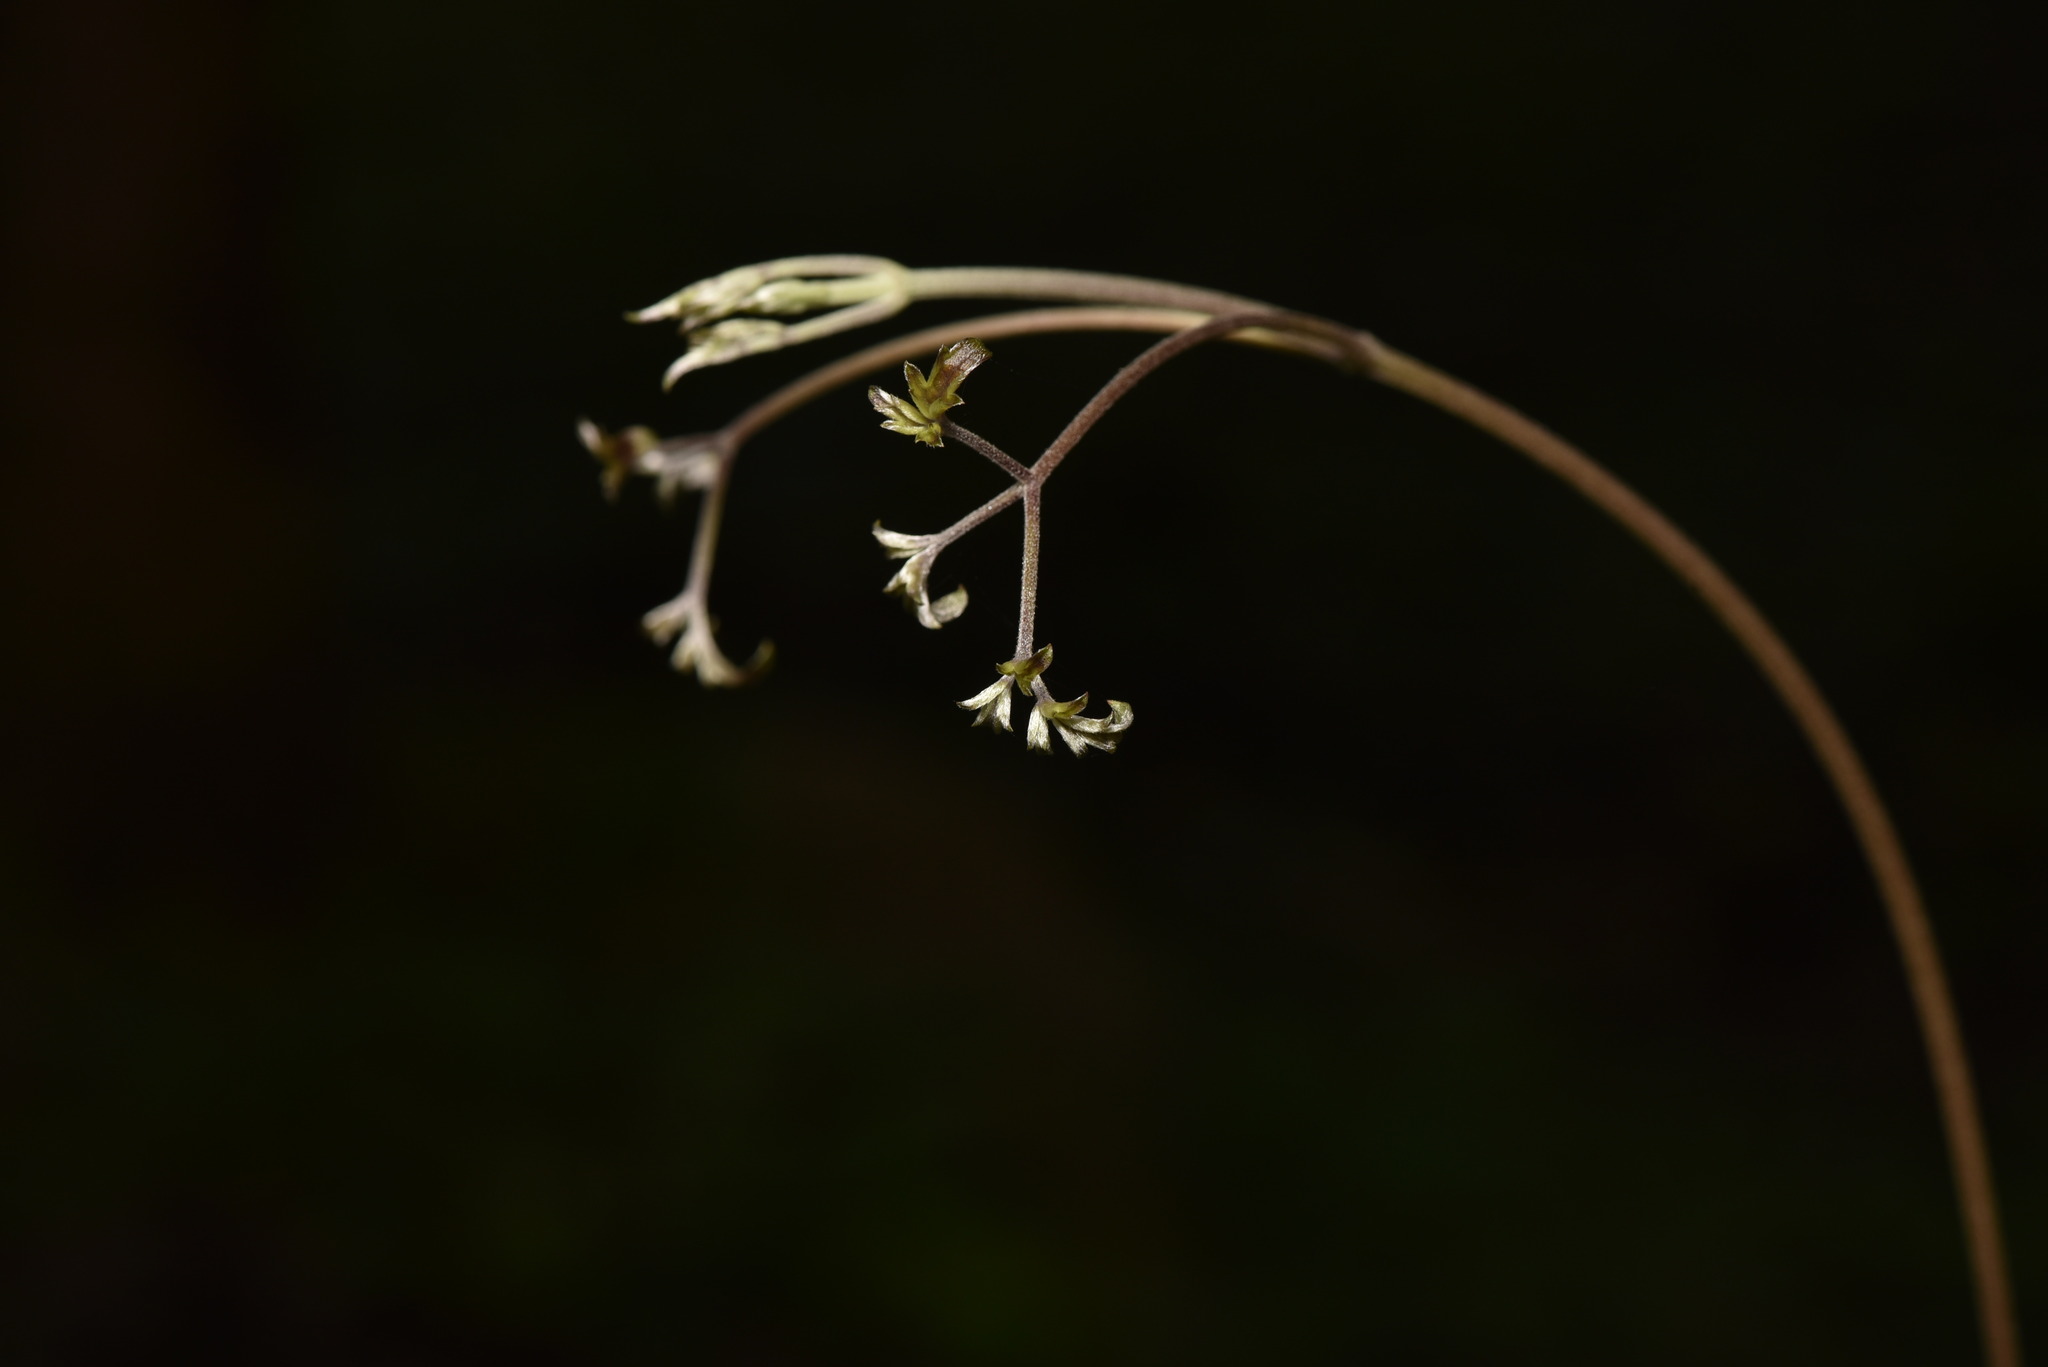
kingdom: Plantae
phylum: Tracheophyta
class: Magnoliopsida
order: Ranunculales
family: Ranunculaceae
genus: Clematis
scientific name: Clematis grata
